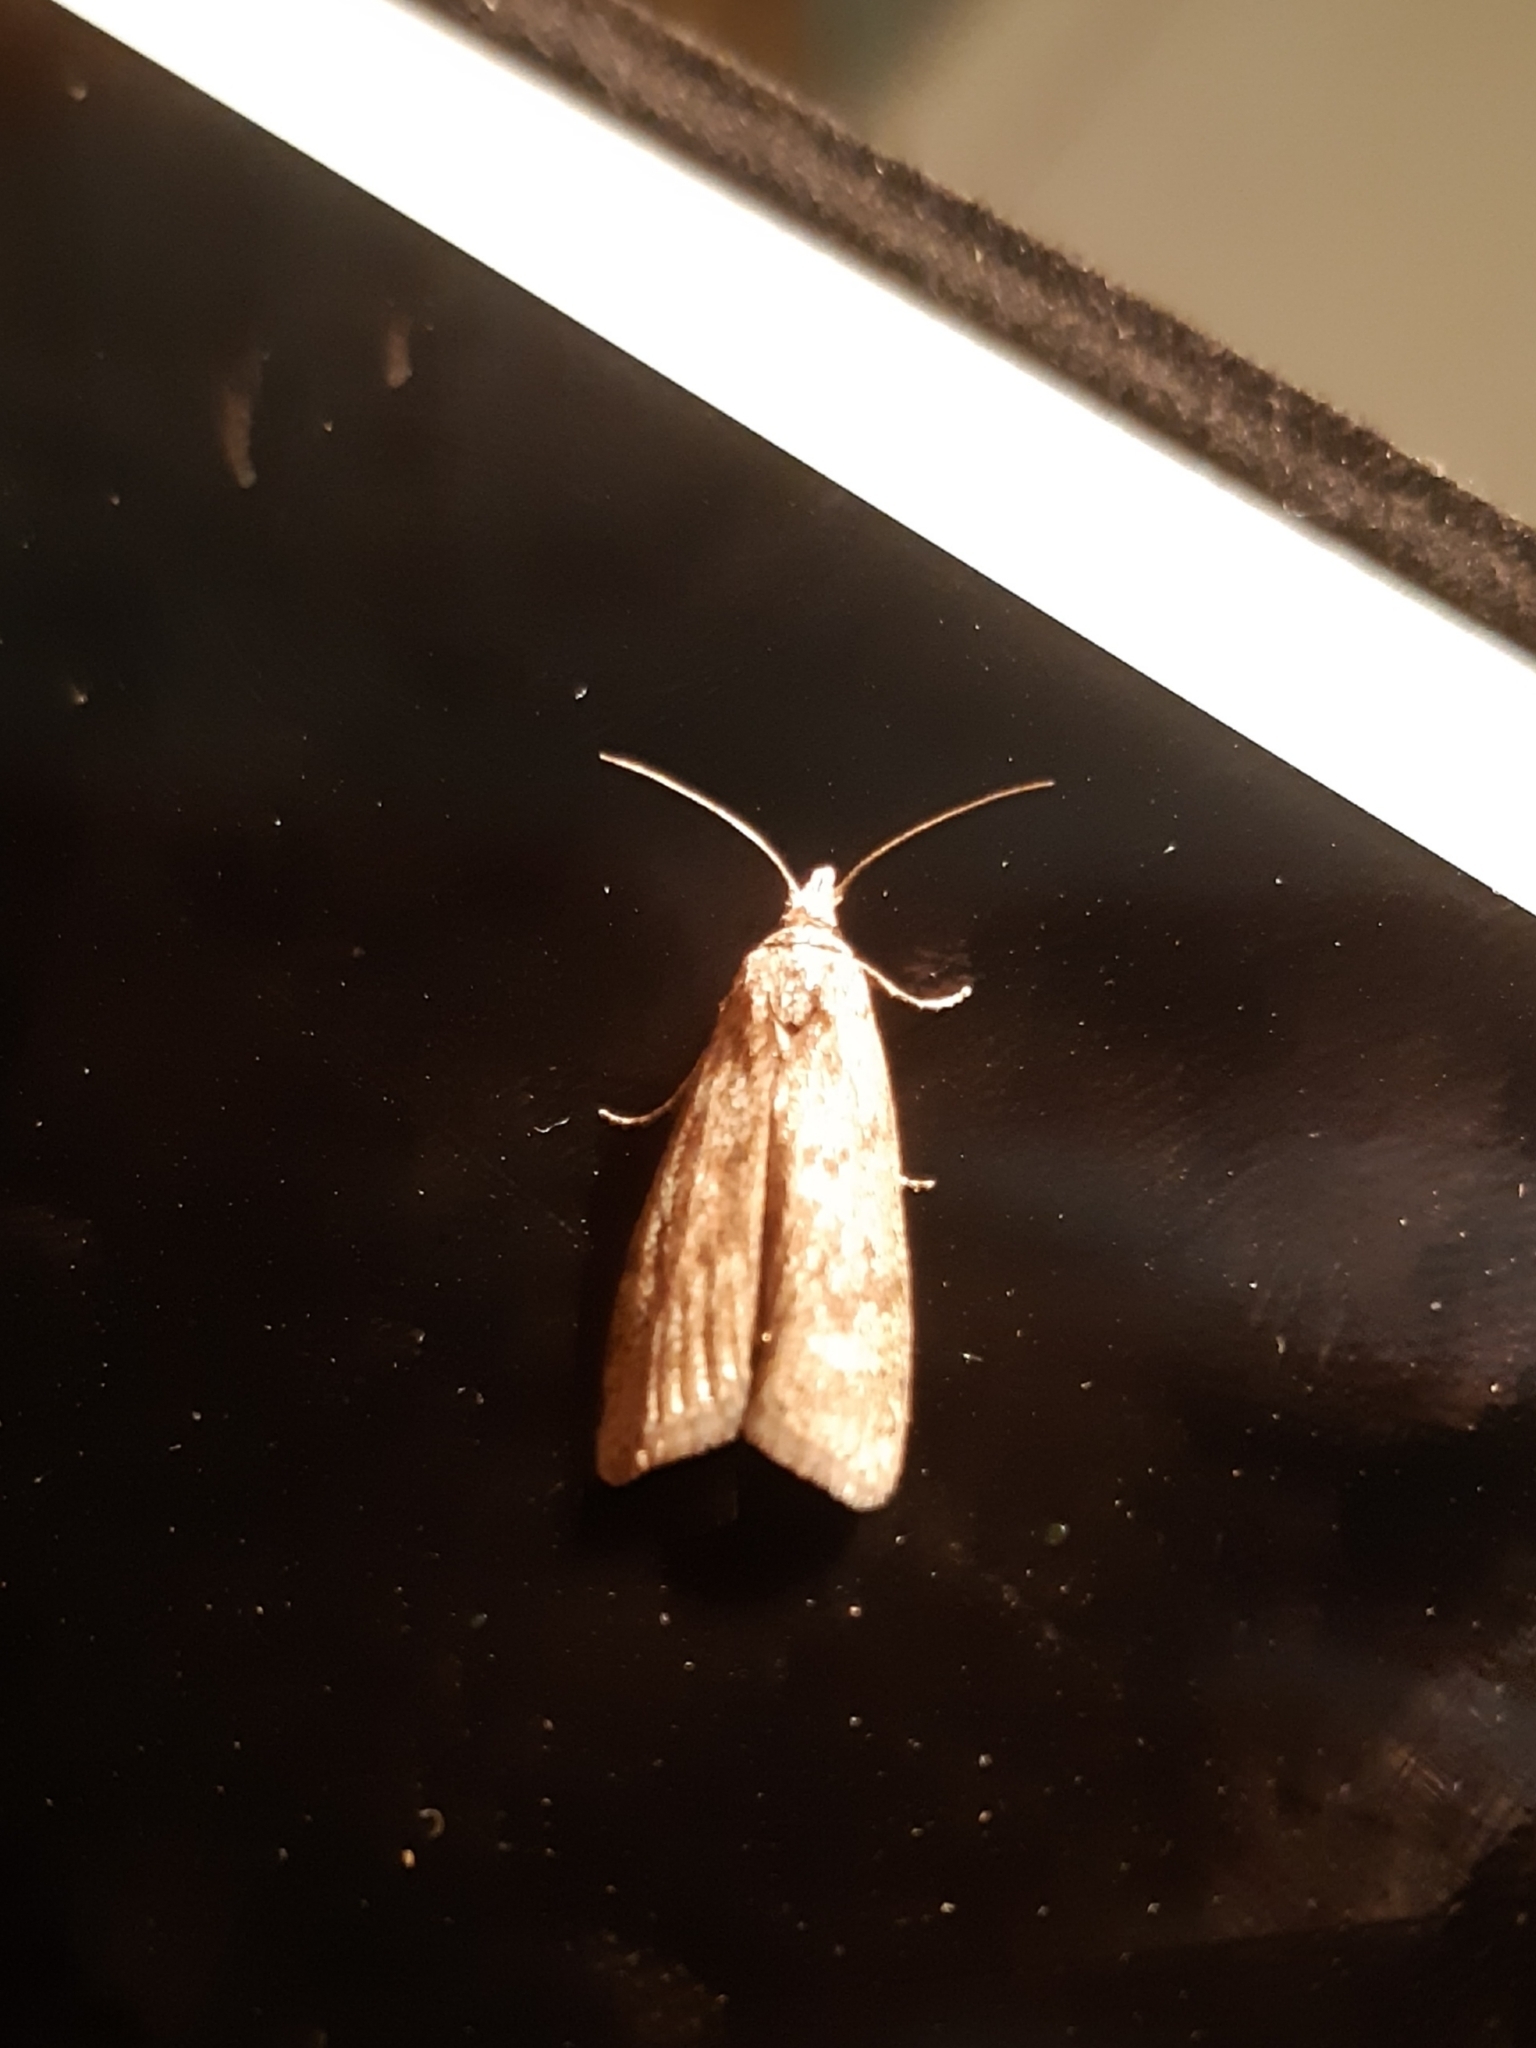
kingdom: Animalia
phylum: Arthropoda
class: Insecta
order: Lepidoptera
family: Pyralidae
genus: Aphomia
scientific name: Aphomia sociella
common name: Bee moth
